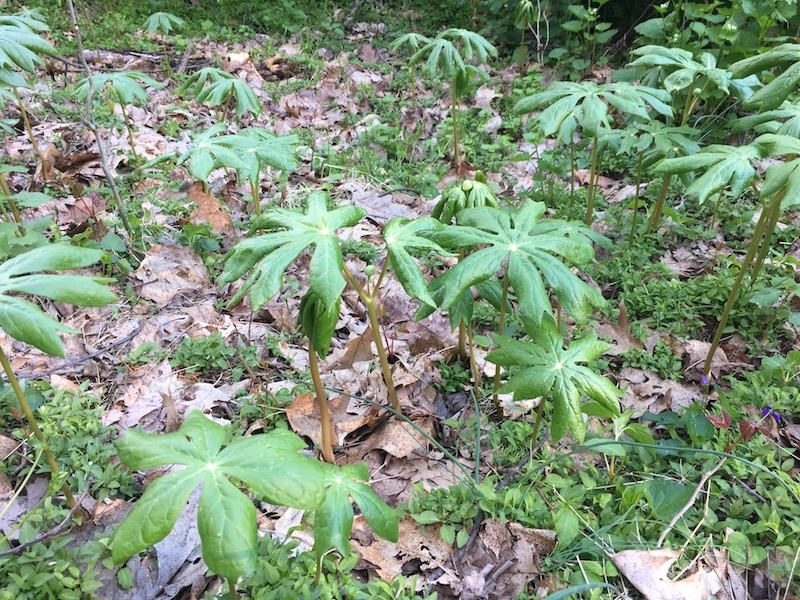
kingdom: Plantae
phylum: Tracheophyta
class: Magnoliopsida
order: Ranunculales
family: Berberidaceae
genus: Podophyllum
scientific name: Podophyllum peltatum
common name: Wild mandrake
